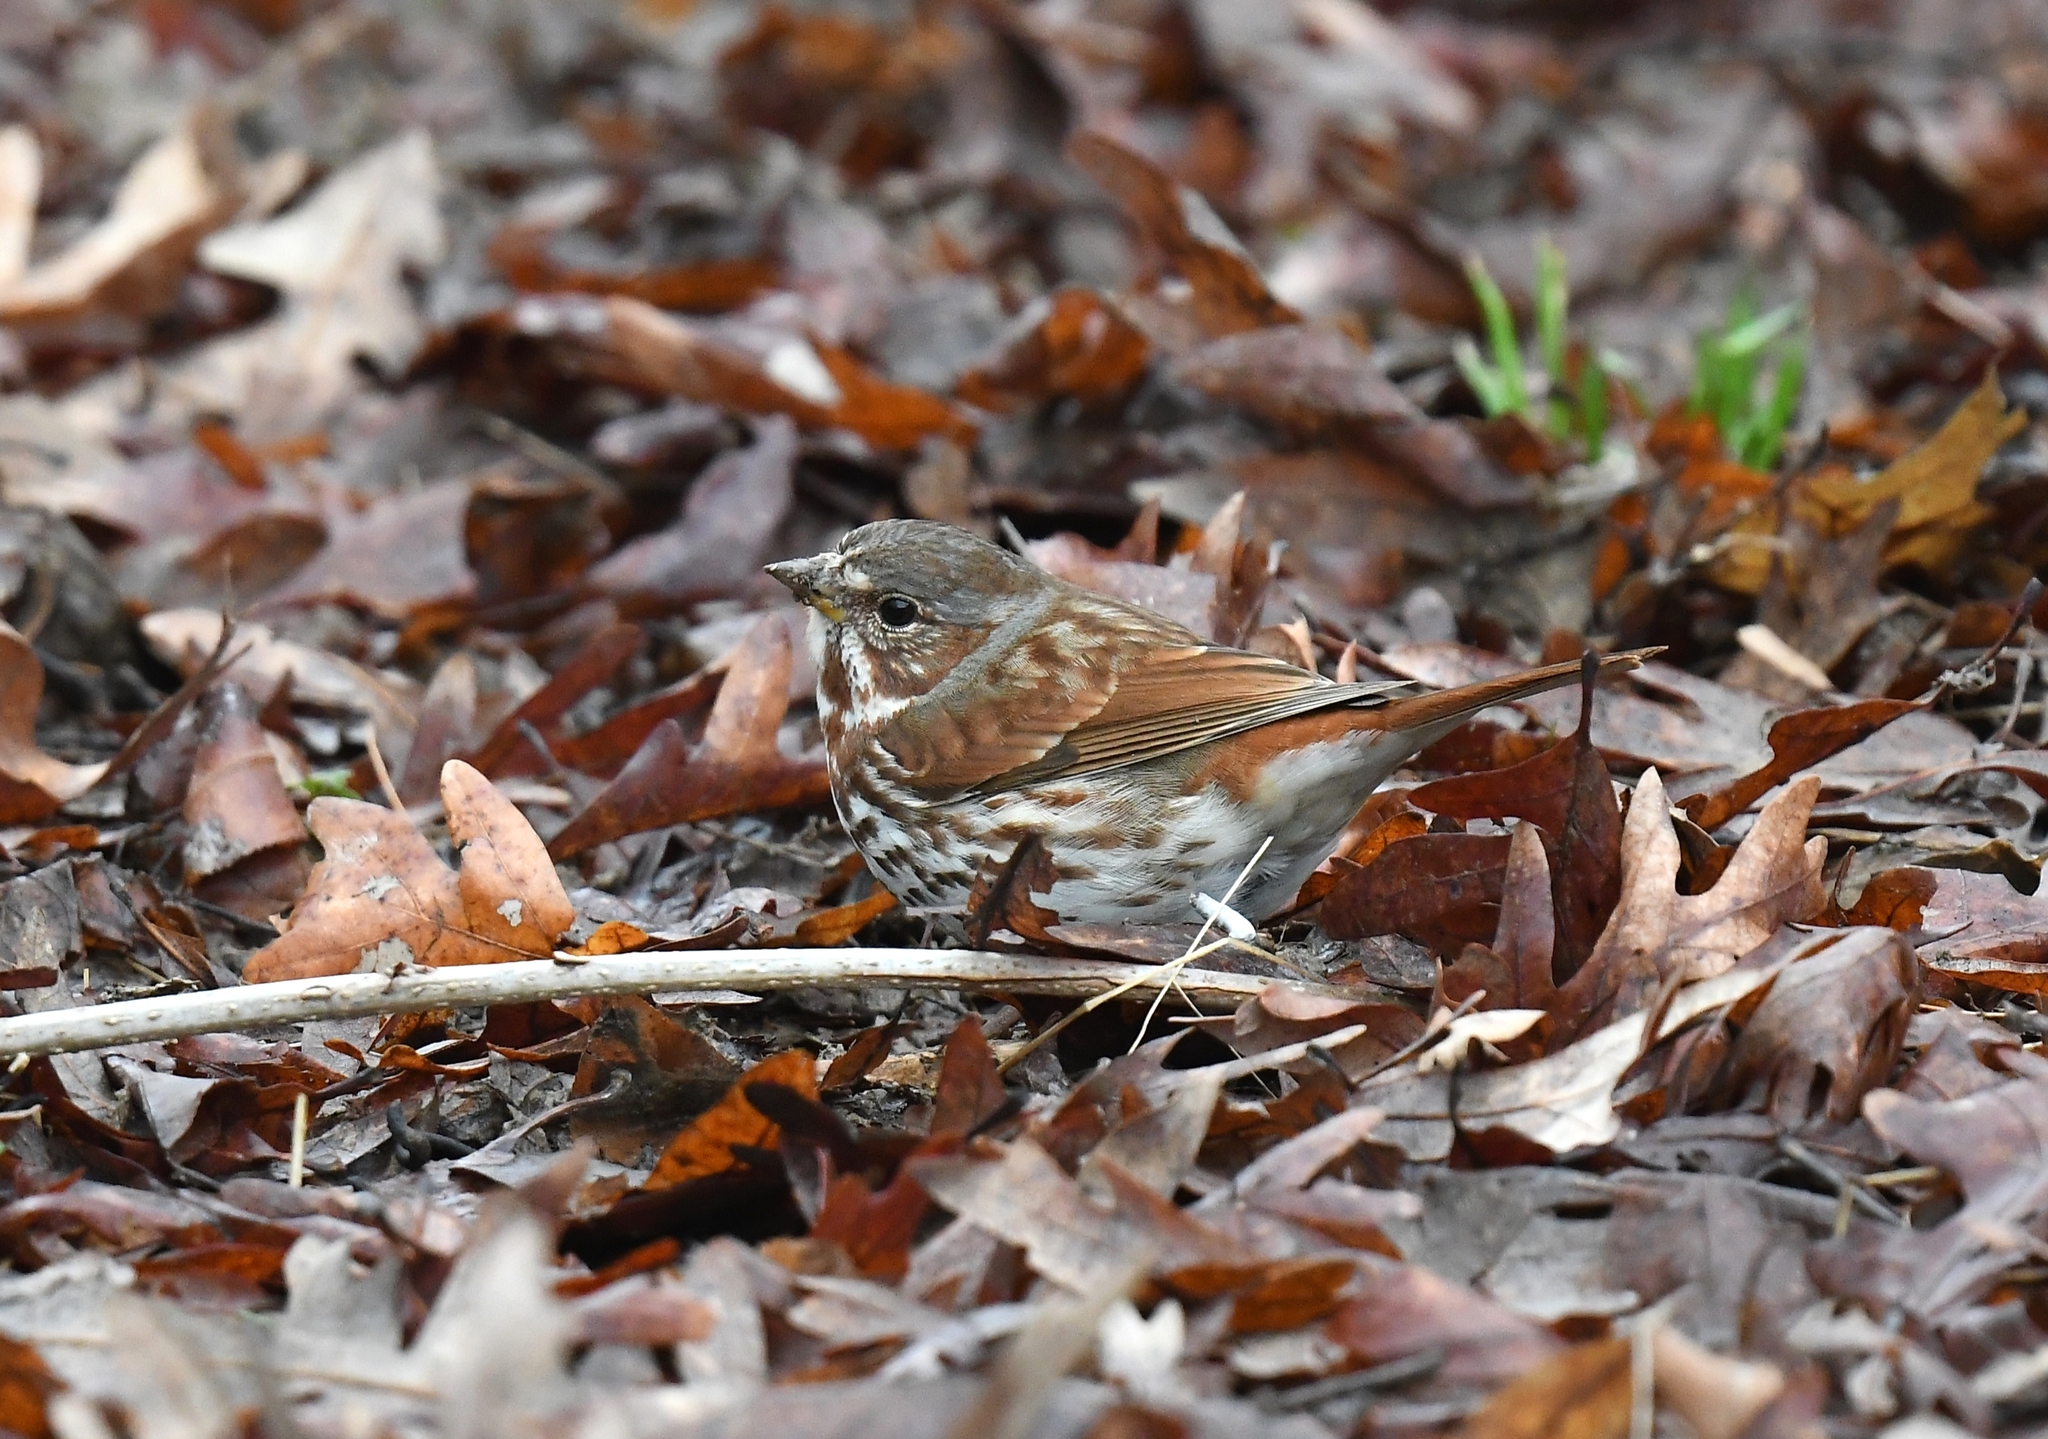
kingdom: Animalia
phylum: Chordata
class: Aves
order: Passeriformes
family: Passerellidae
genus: Passerella
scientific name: Passerella iliaca
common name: Fox sparrow
